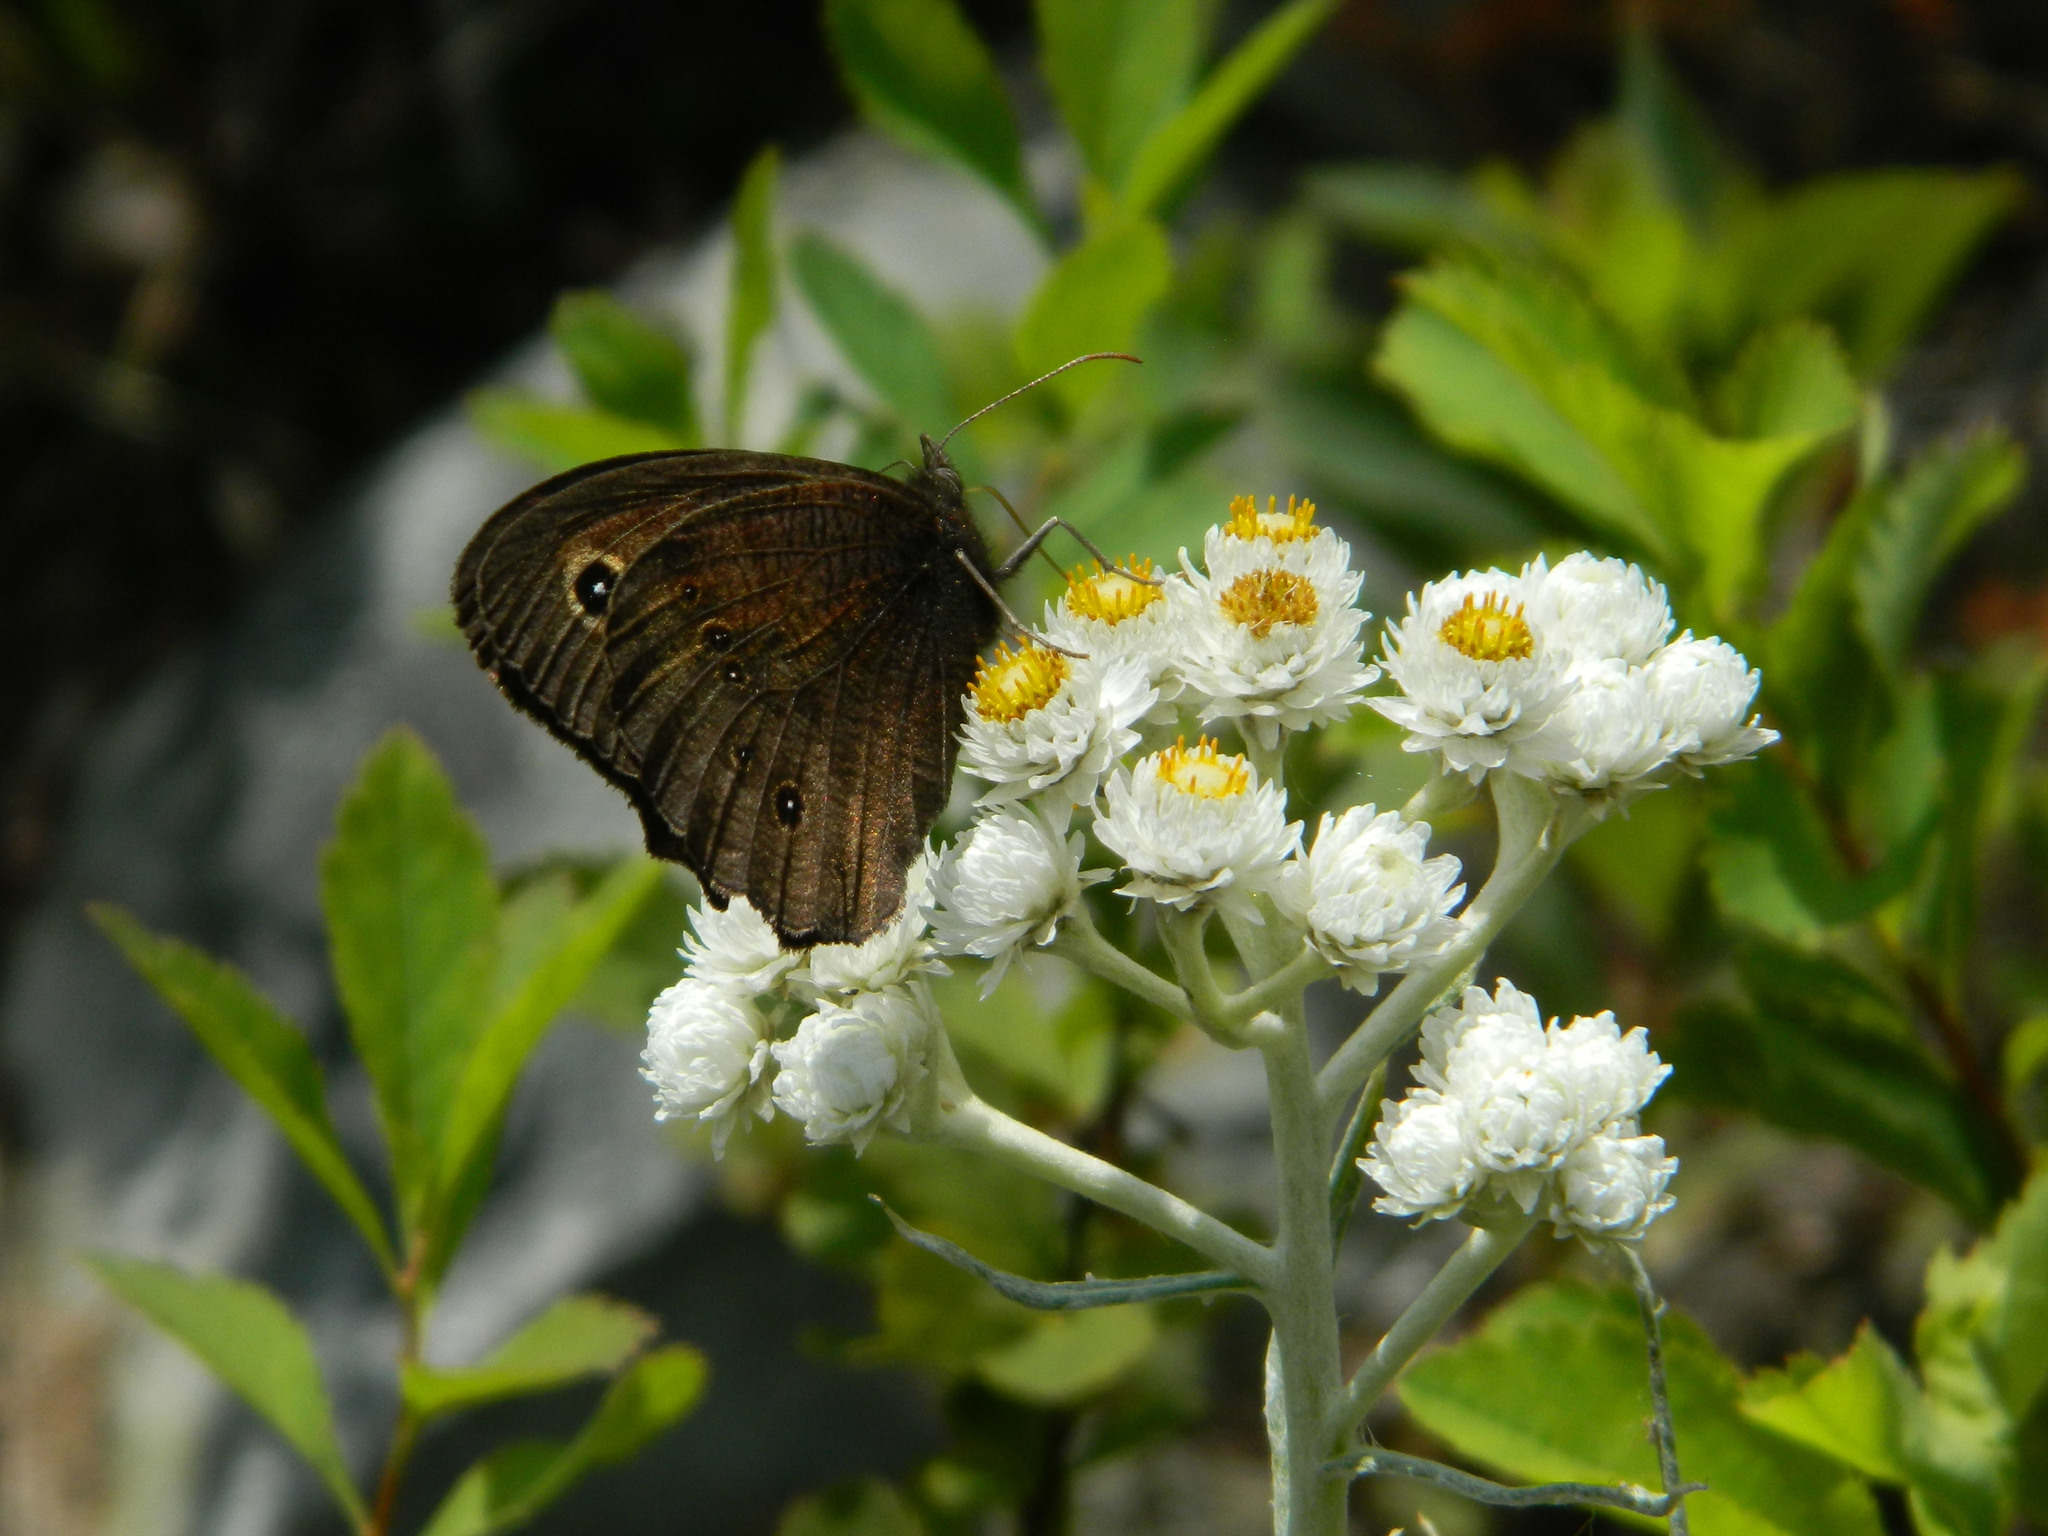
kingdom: Animalia
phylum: Arthropoda
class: Insecta
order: Lepidoptera
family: Nymphalidae
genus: Cercyonis
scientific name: Cercyonis pegala
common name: Common wood-nymph
